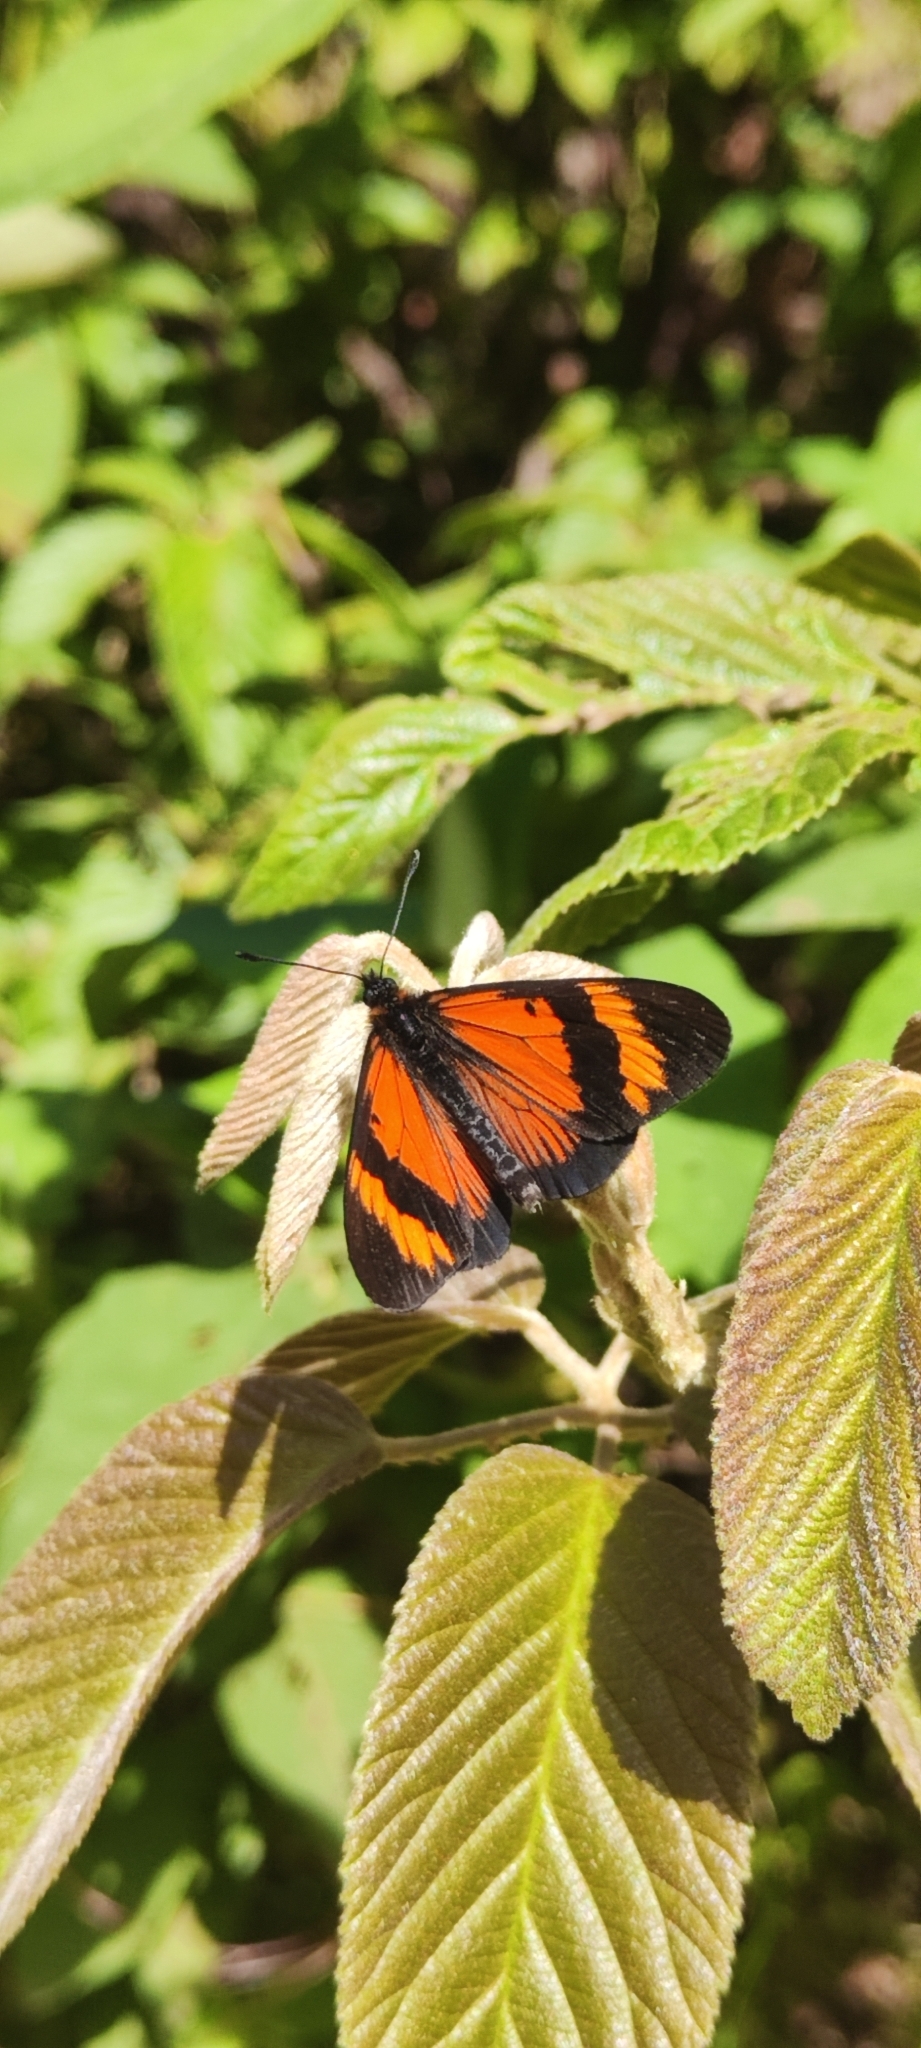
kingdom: Animalia
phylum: Arthropoda
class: Insecta
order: Lepidoptera
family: Nymphalidae
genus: Actinote
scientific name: Actinote negra
